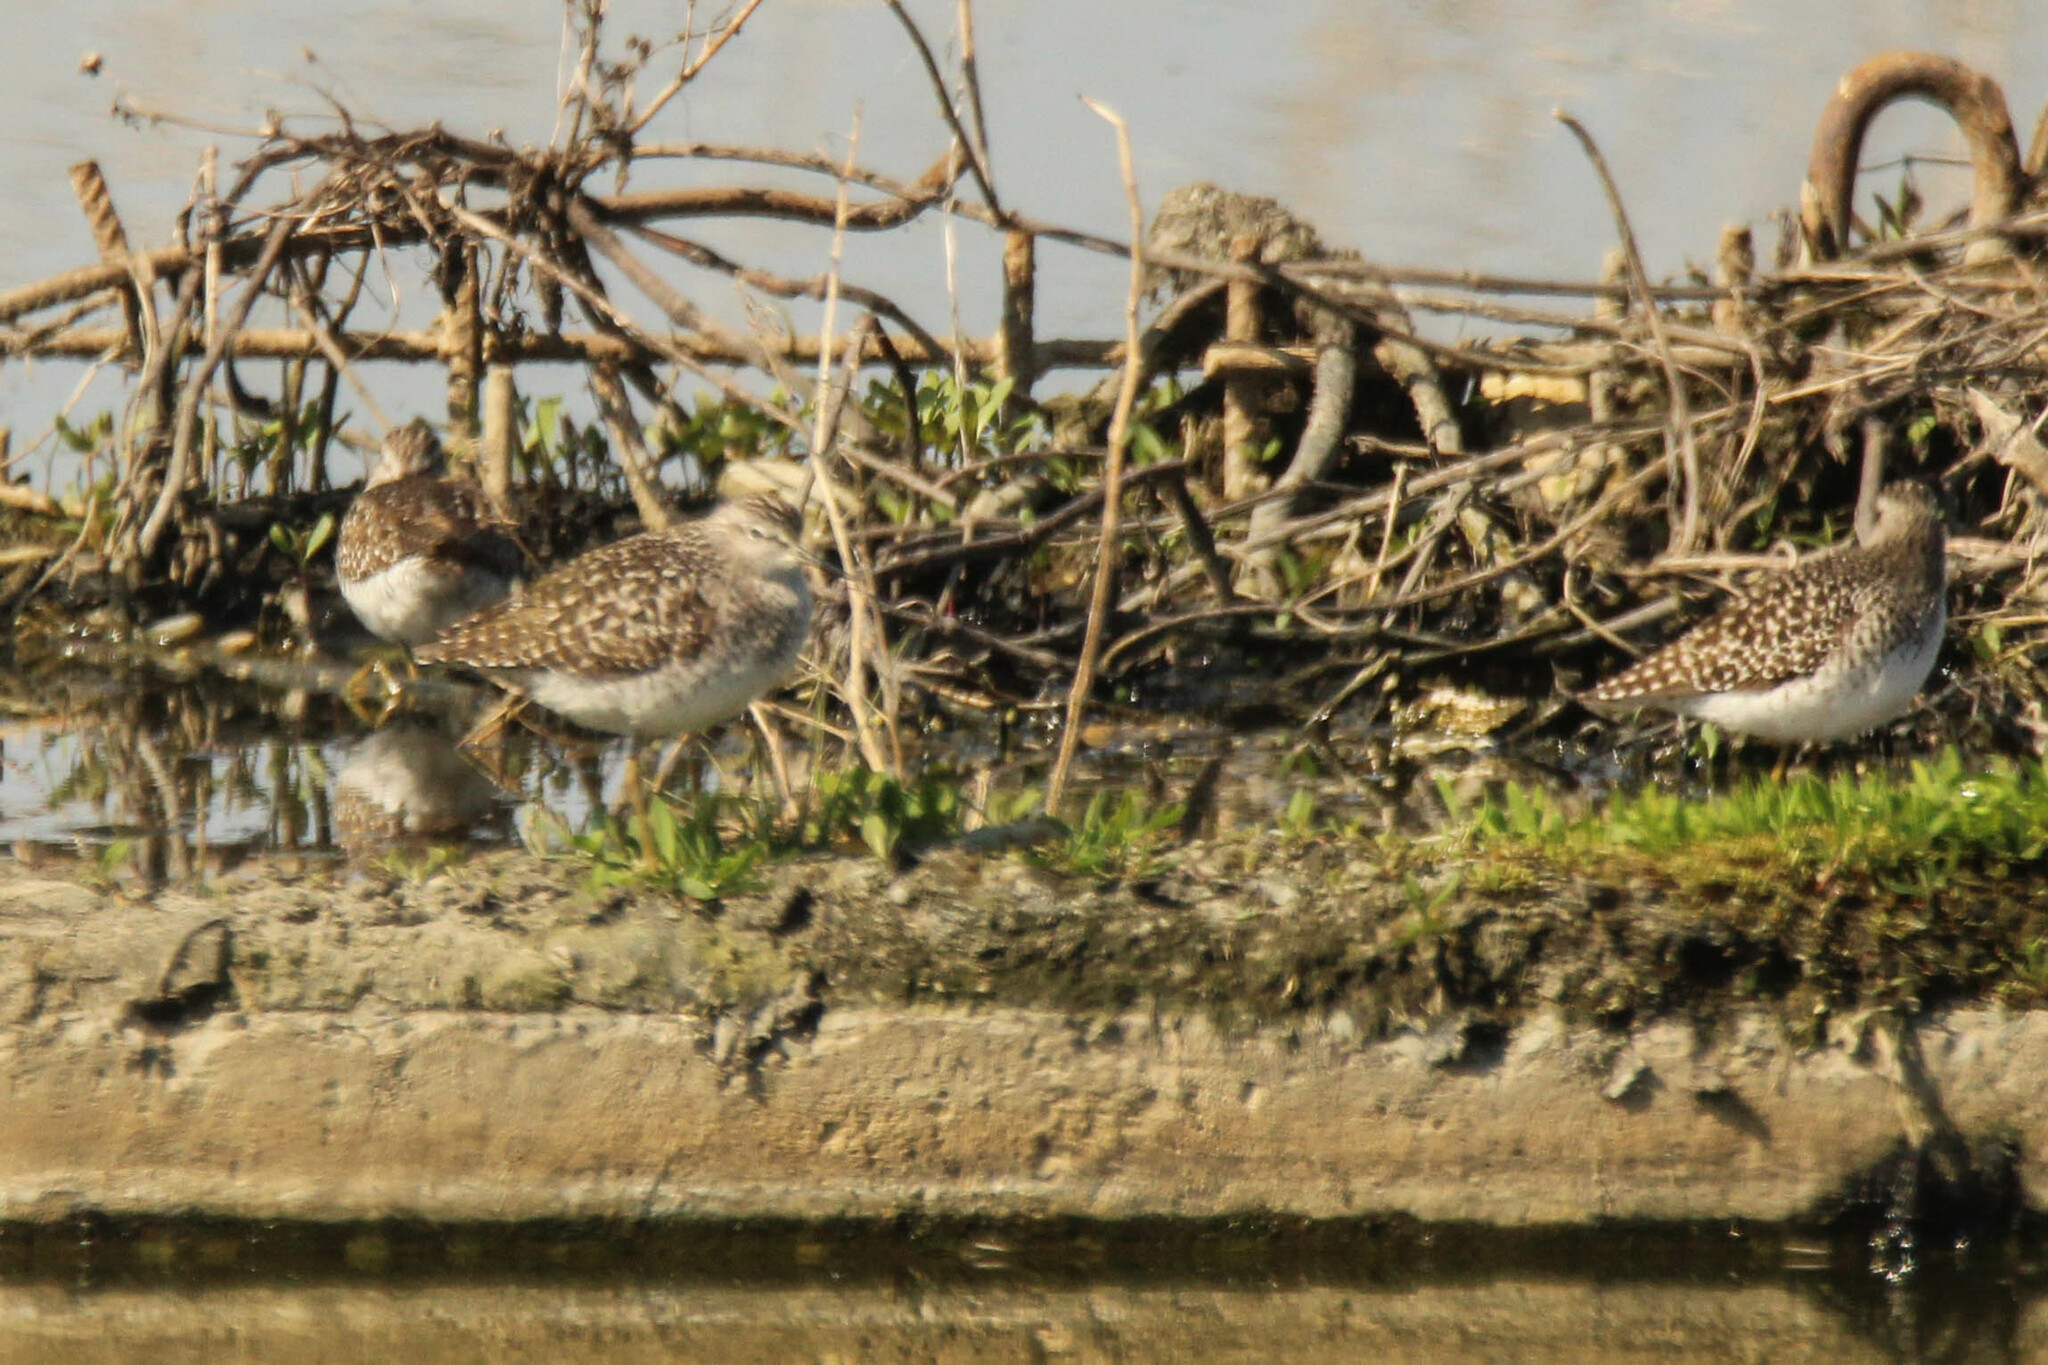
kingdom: Animalia
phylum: Chordata
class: Aves
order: Charadriiformes
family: Scolopacidae
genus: Tringa
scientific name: Tringa glareola
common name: Wood sandpiper
